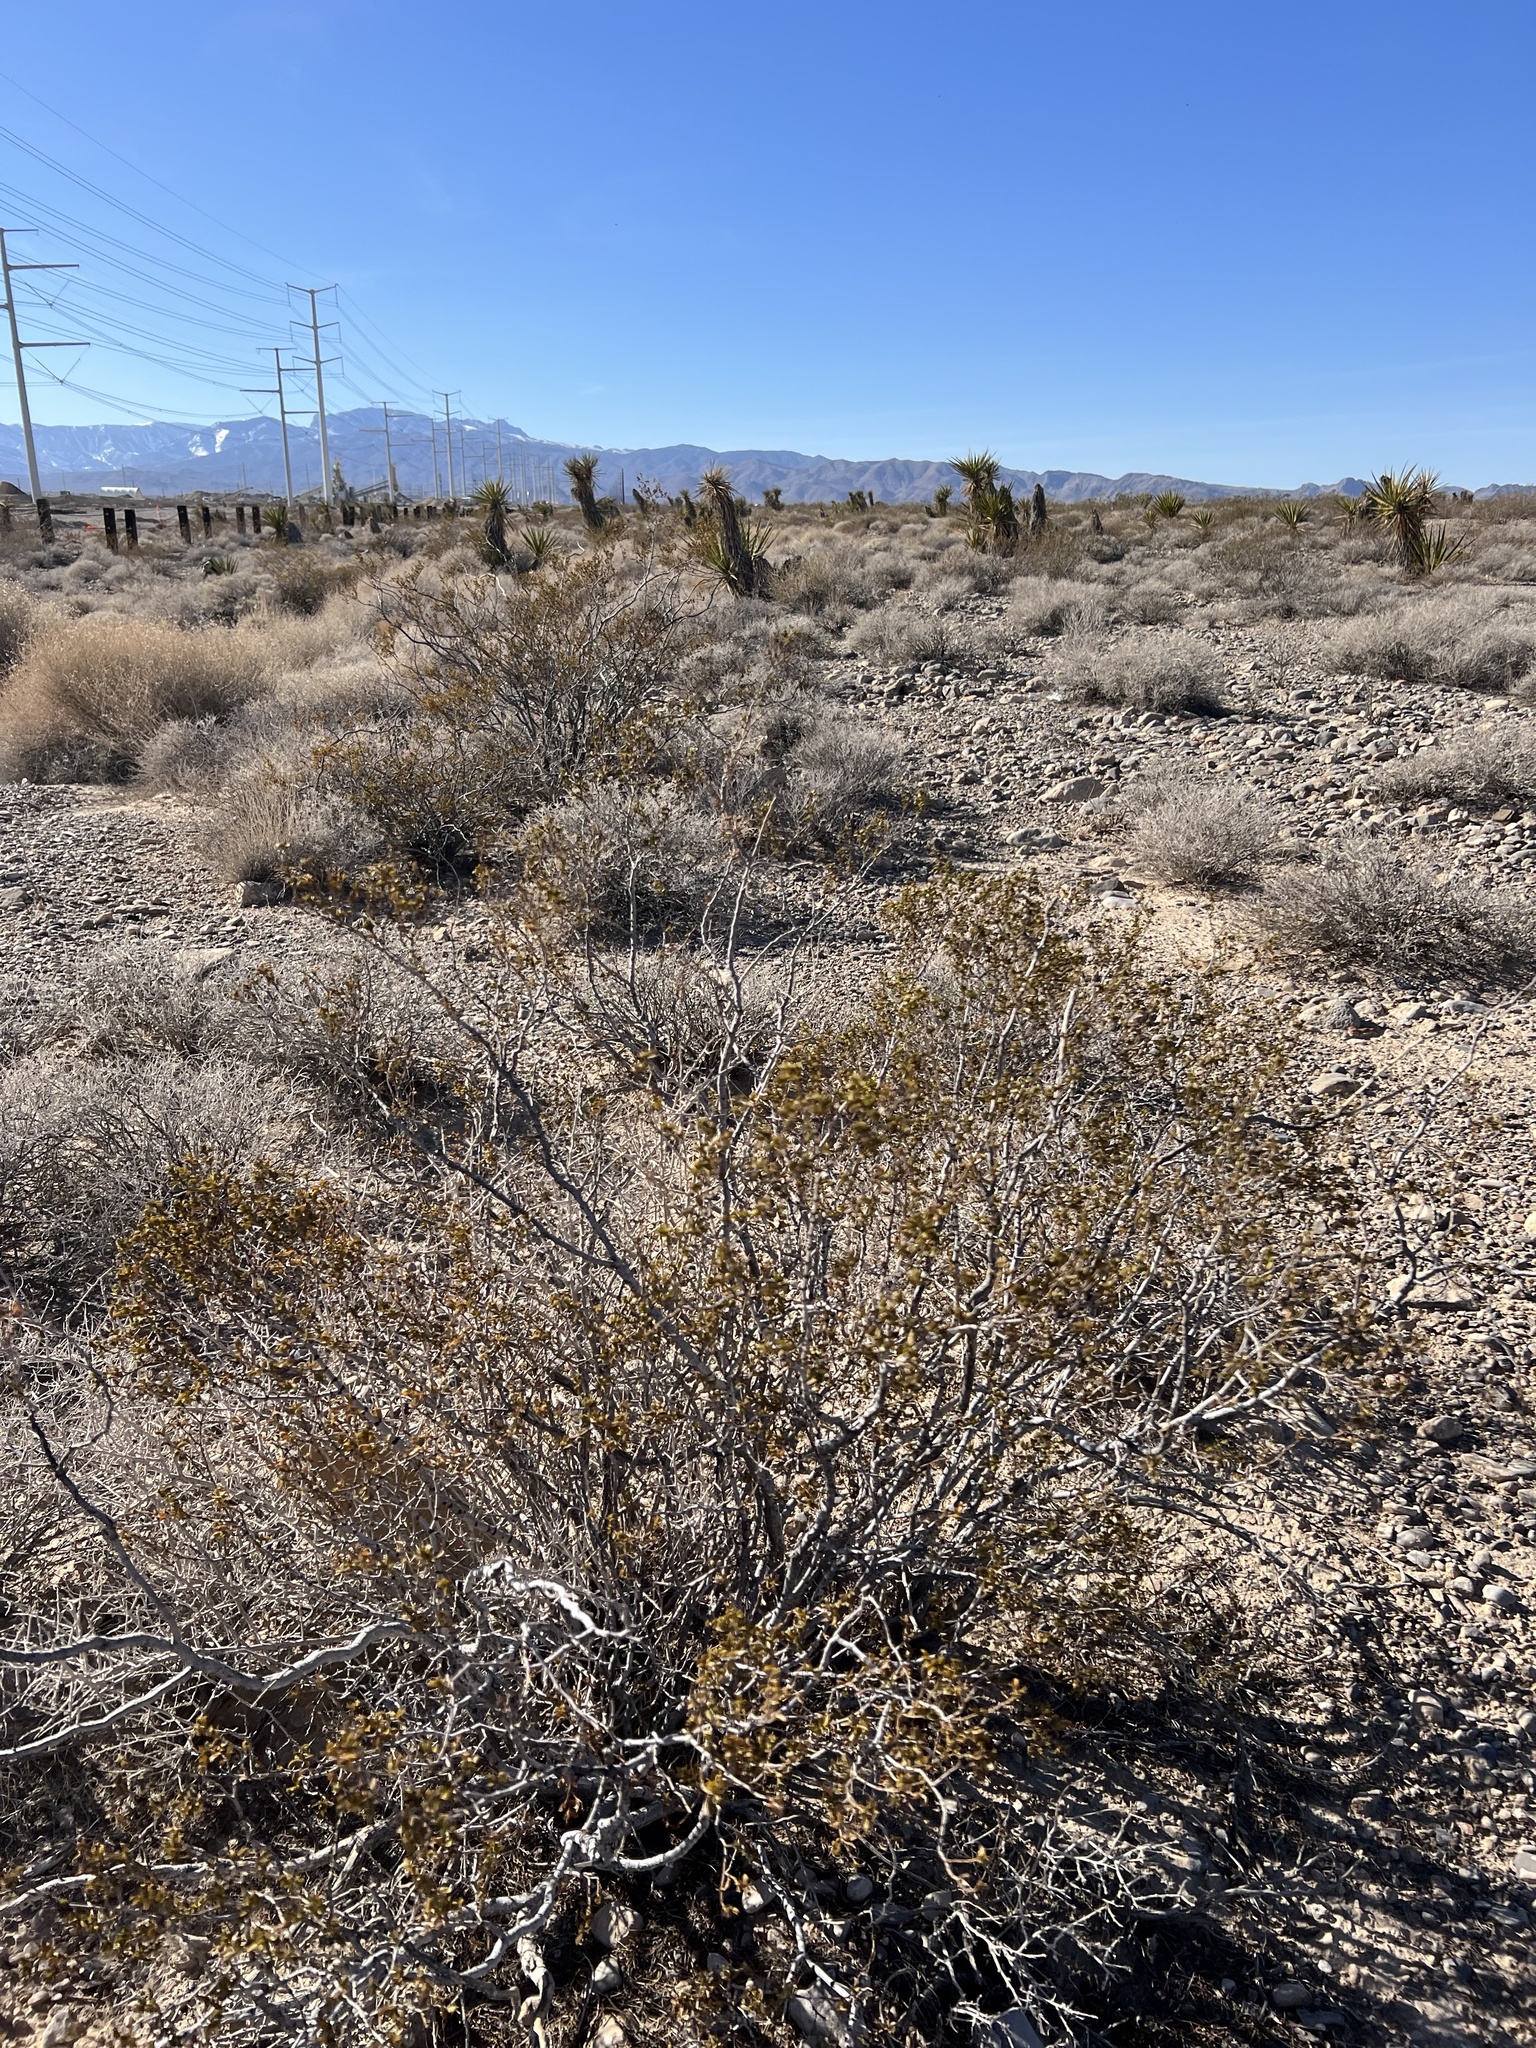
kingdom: Plantae
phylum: Tracheophyta
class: Magnoliopsida
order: Zygophyllales
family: Zygophyllaceae
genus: Larrea
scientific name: Larrea tridentata
